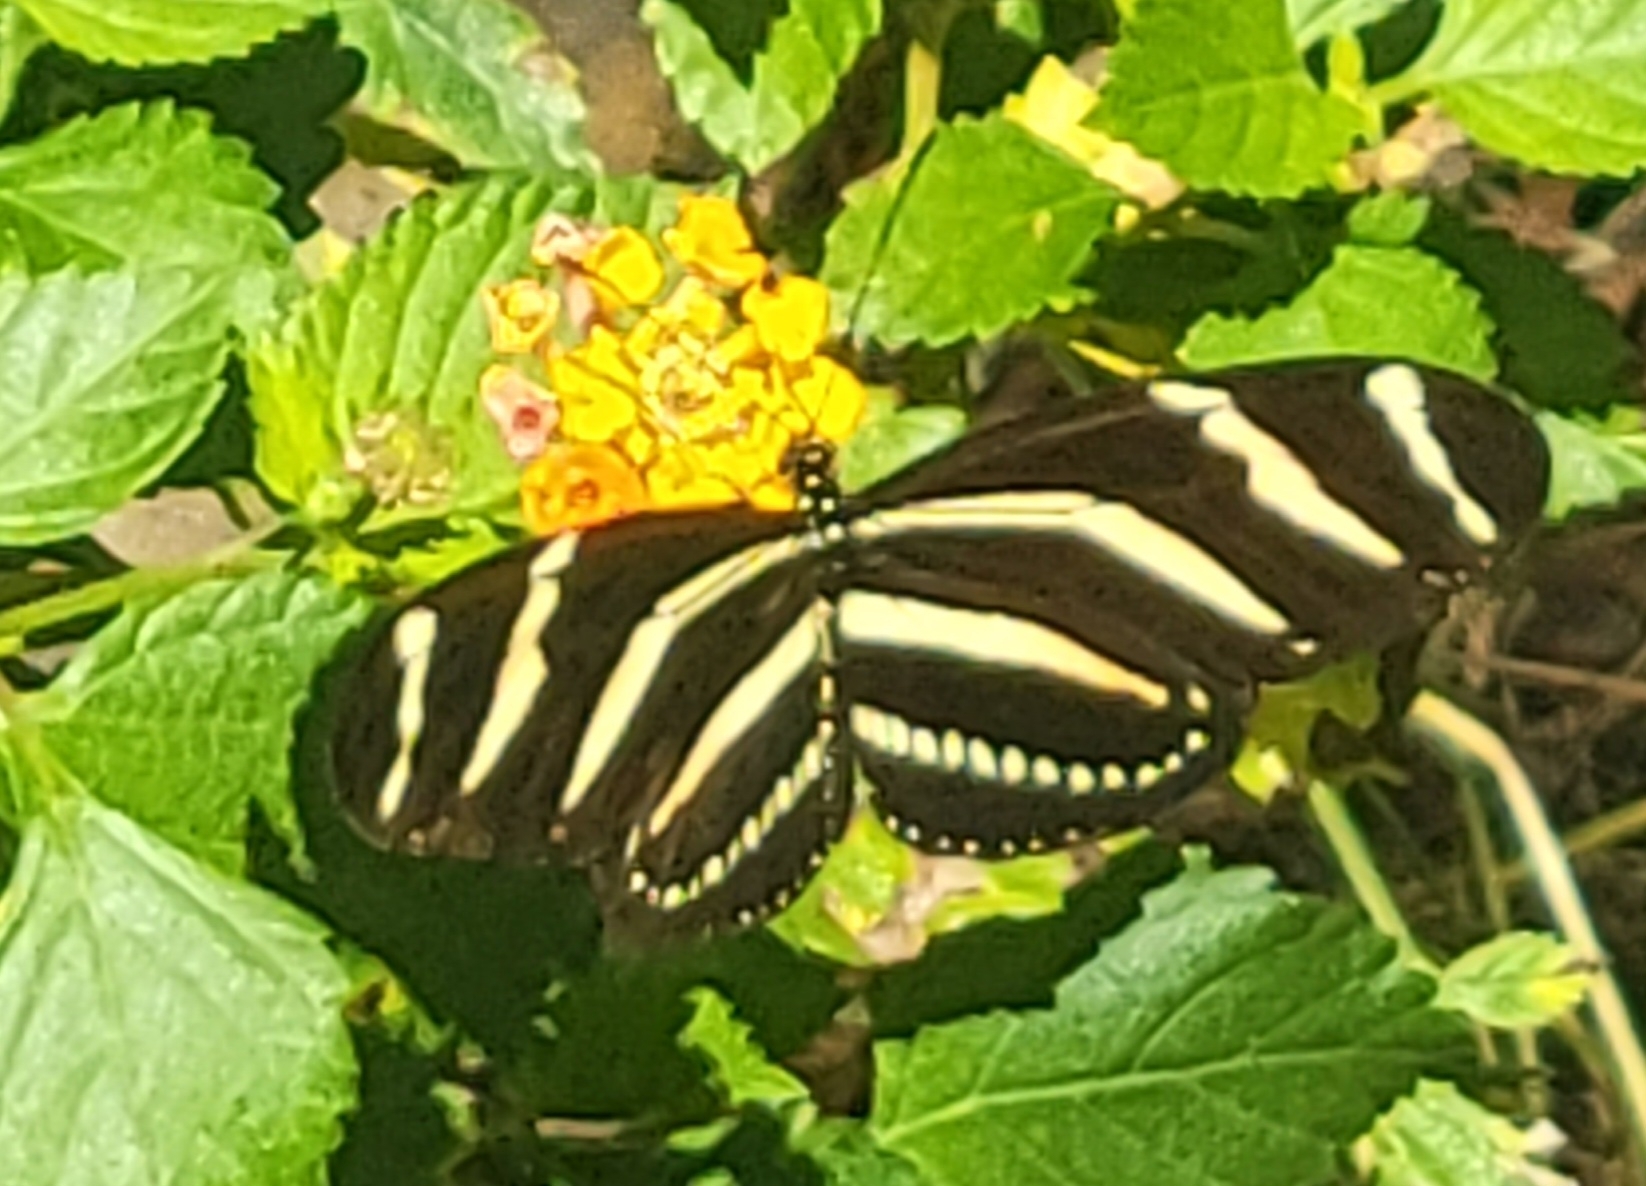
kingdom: Animalia
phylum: Arthropoda
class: Insecta
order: Lepidoptera
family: Nymphalidae
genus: Heliconius
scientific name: Heliconius charithonia
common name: Zebra long wing
